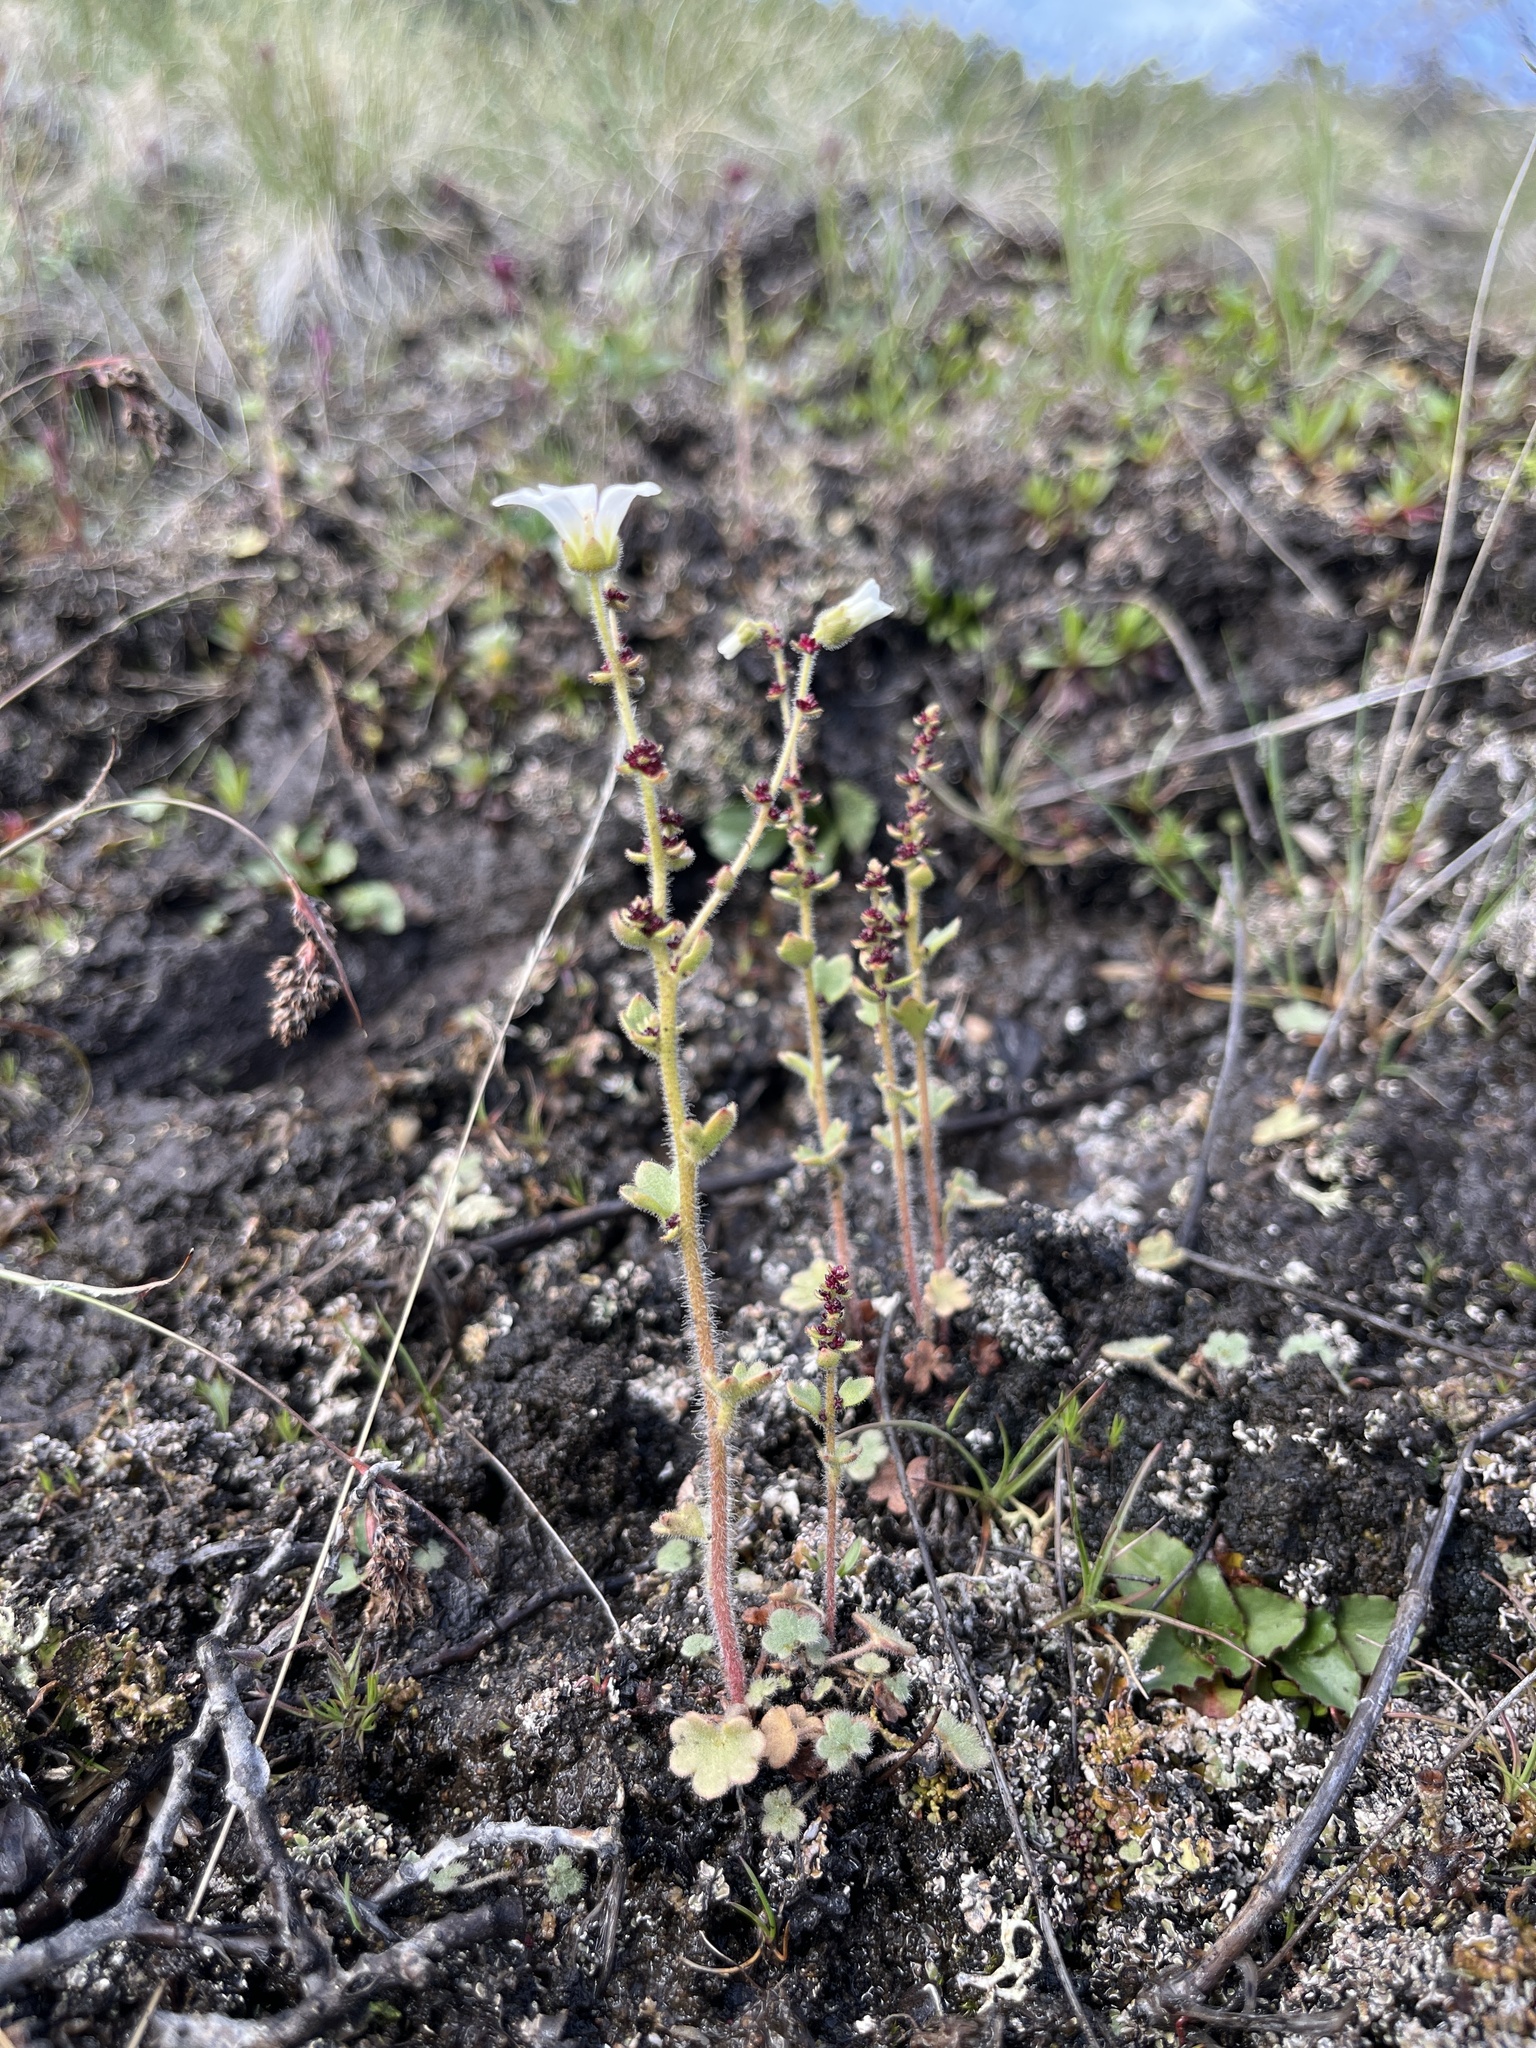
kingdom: Plantae
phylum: Tracheophyta
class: Magnoliopsida
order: Saxifragales
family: Saxifragaceae
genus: Micranthes
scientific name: Micranthes foliolosa
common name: Leafystem saxifrage
